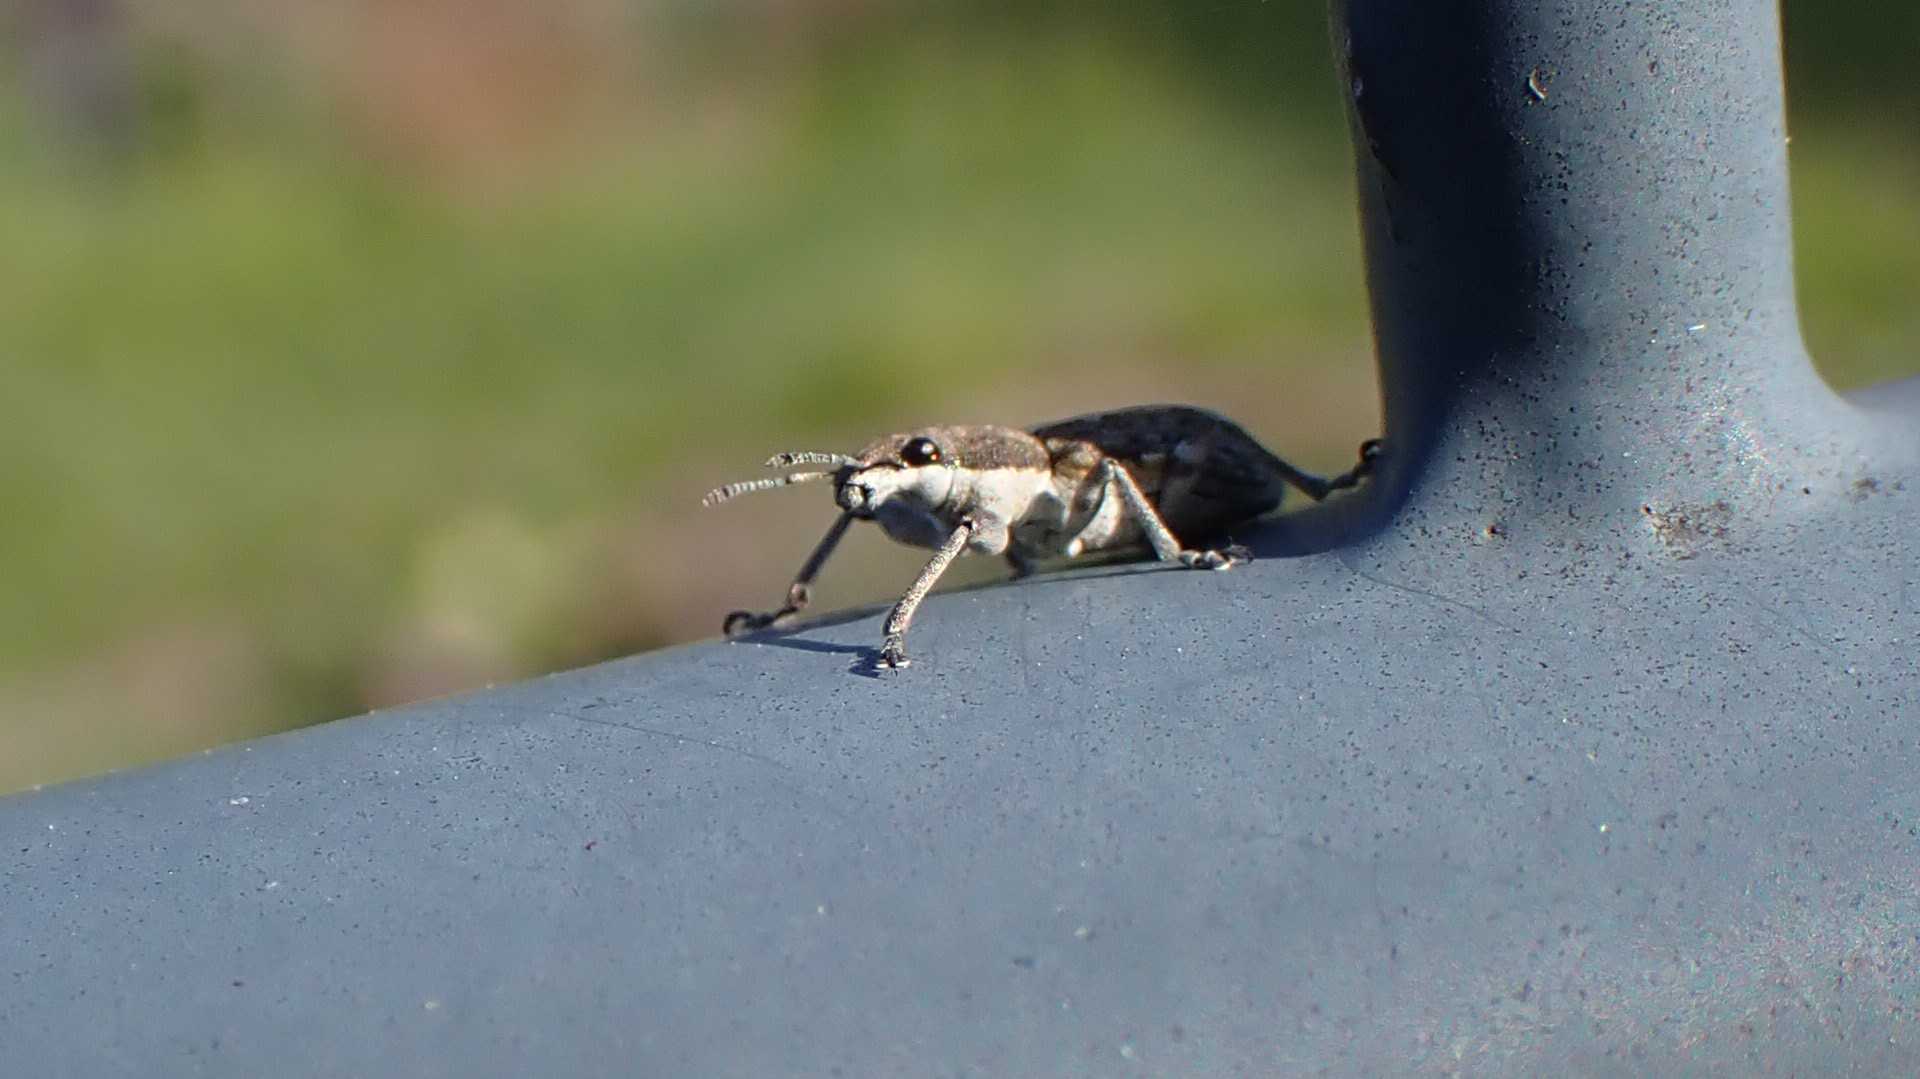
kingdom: Animalia
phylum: Arthropoda
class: Insecta
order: Coleoptera
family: Curculionidae
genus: Charagmus
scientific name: Charagmus griseus
